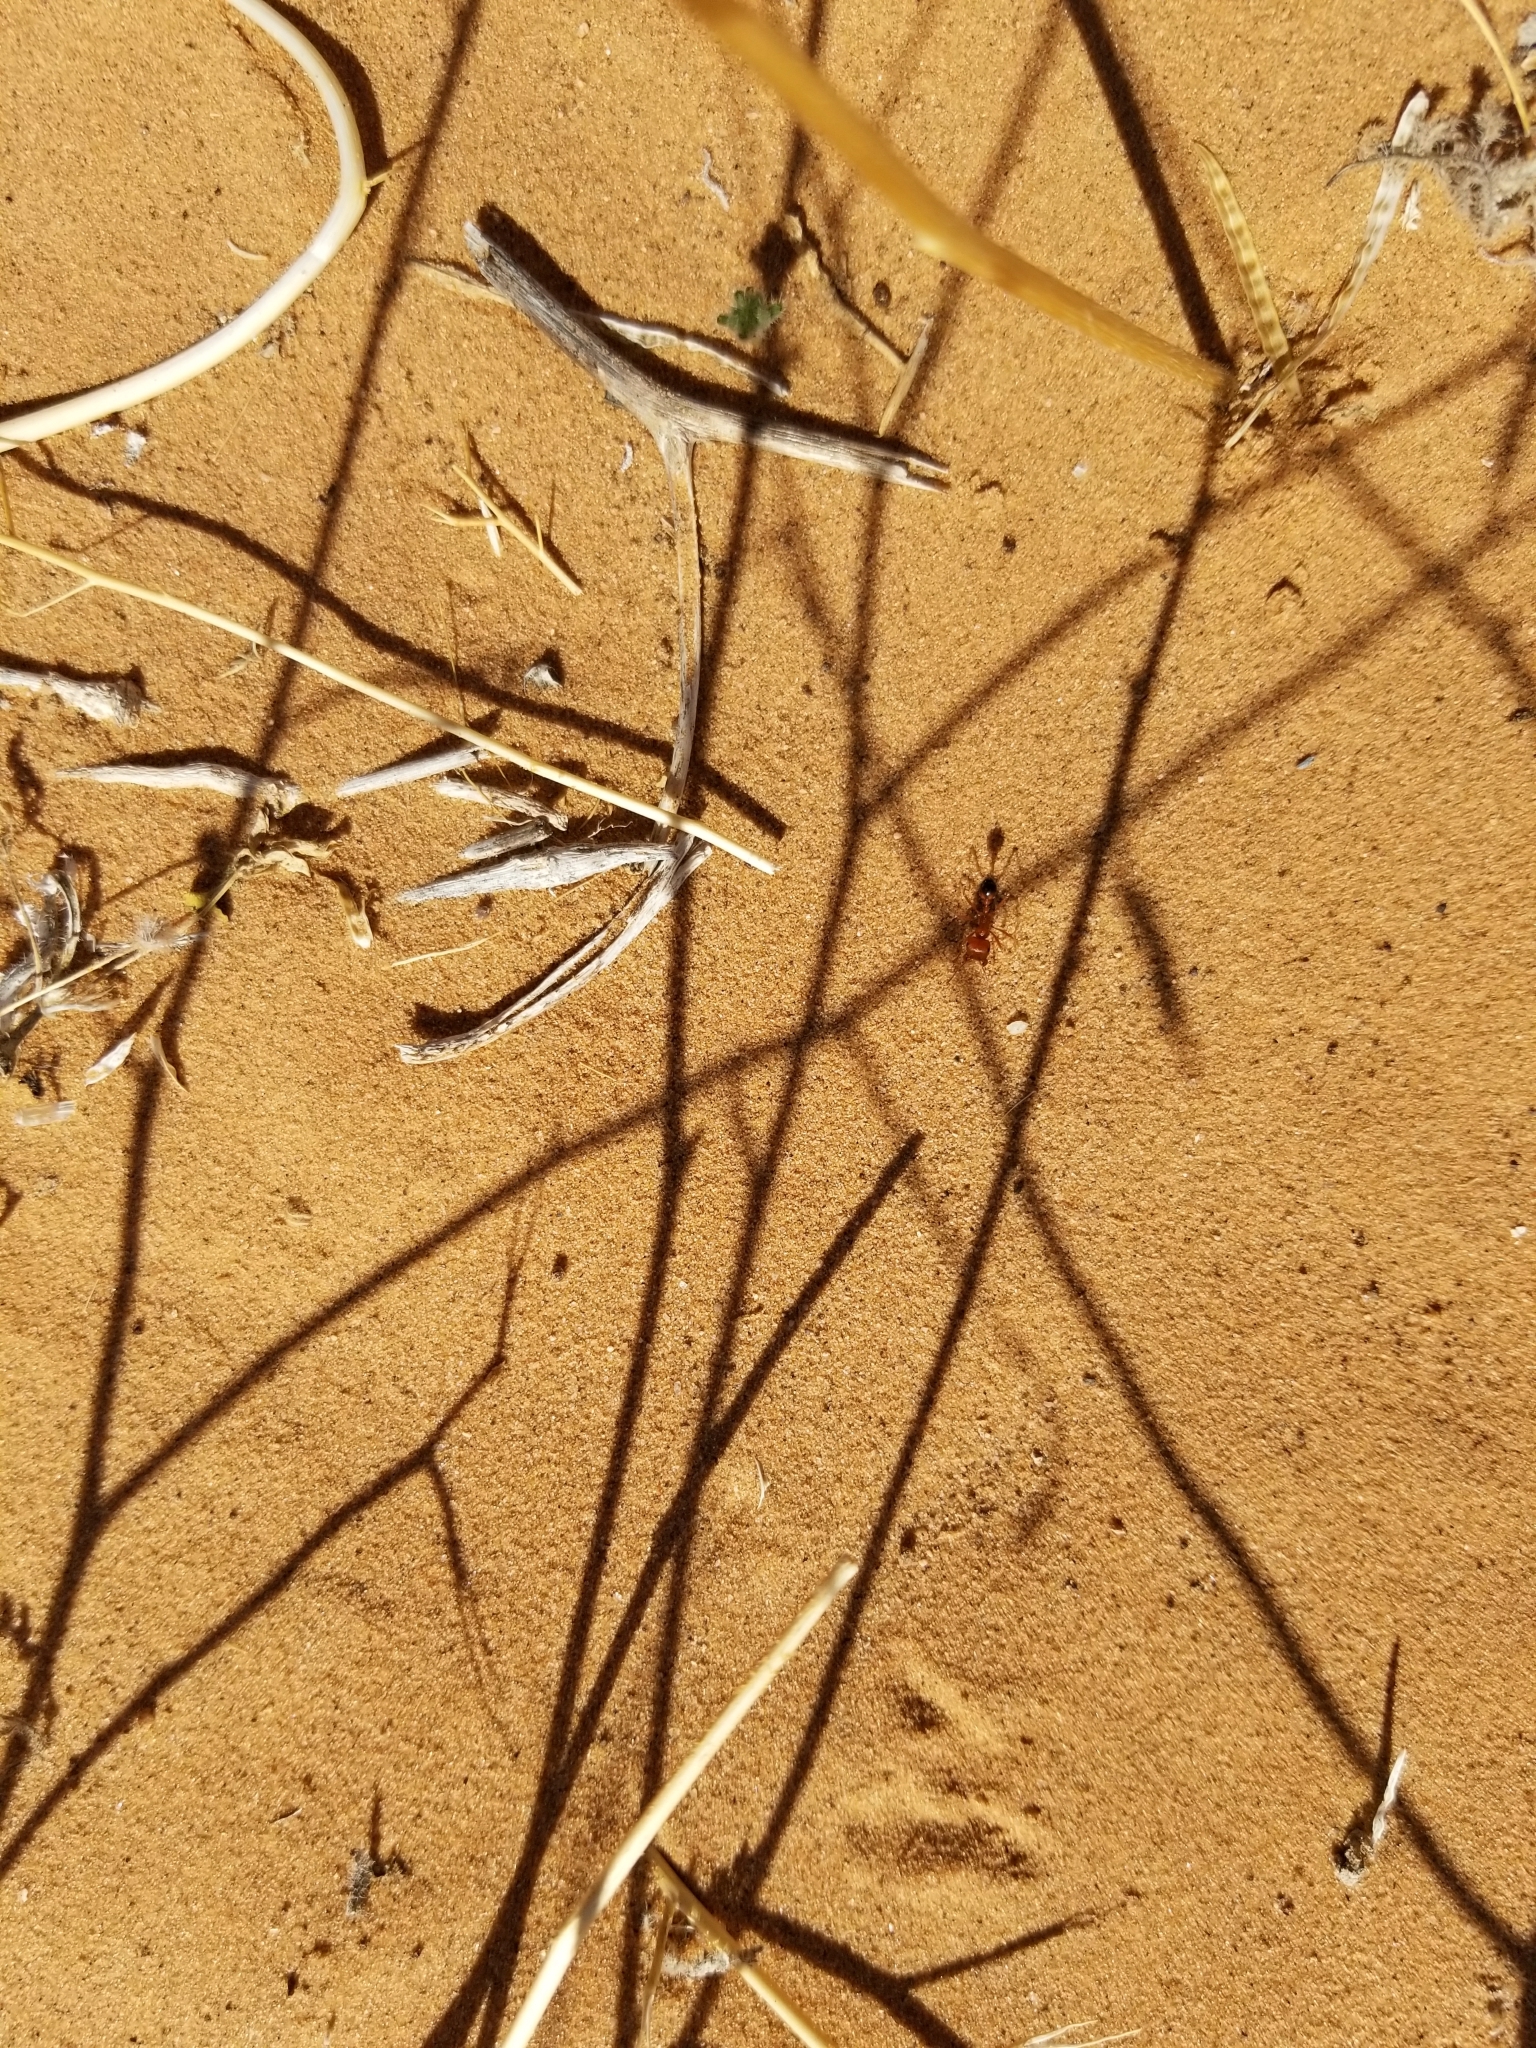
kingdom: Animalia
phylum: Arthropoda
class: Insecta
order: Hymenoptera
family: Formicidae
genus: Pogonomyrmex
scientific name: Pogonomyrmex californicus
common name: California harvester ant
